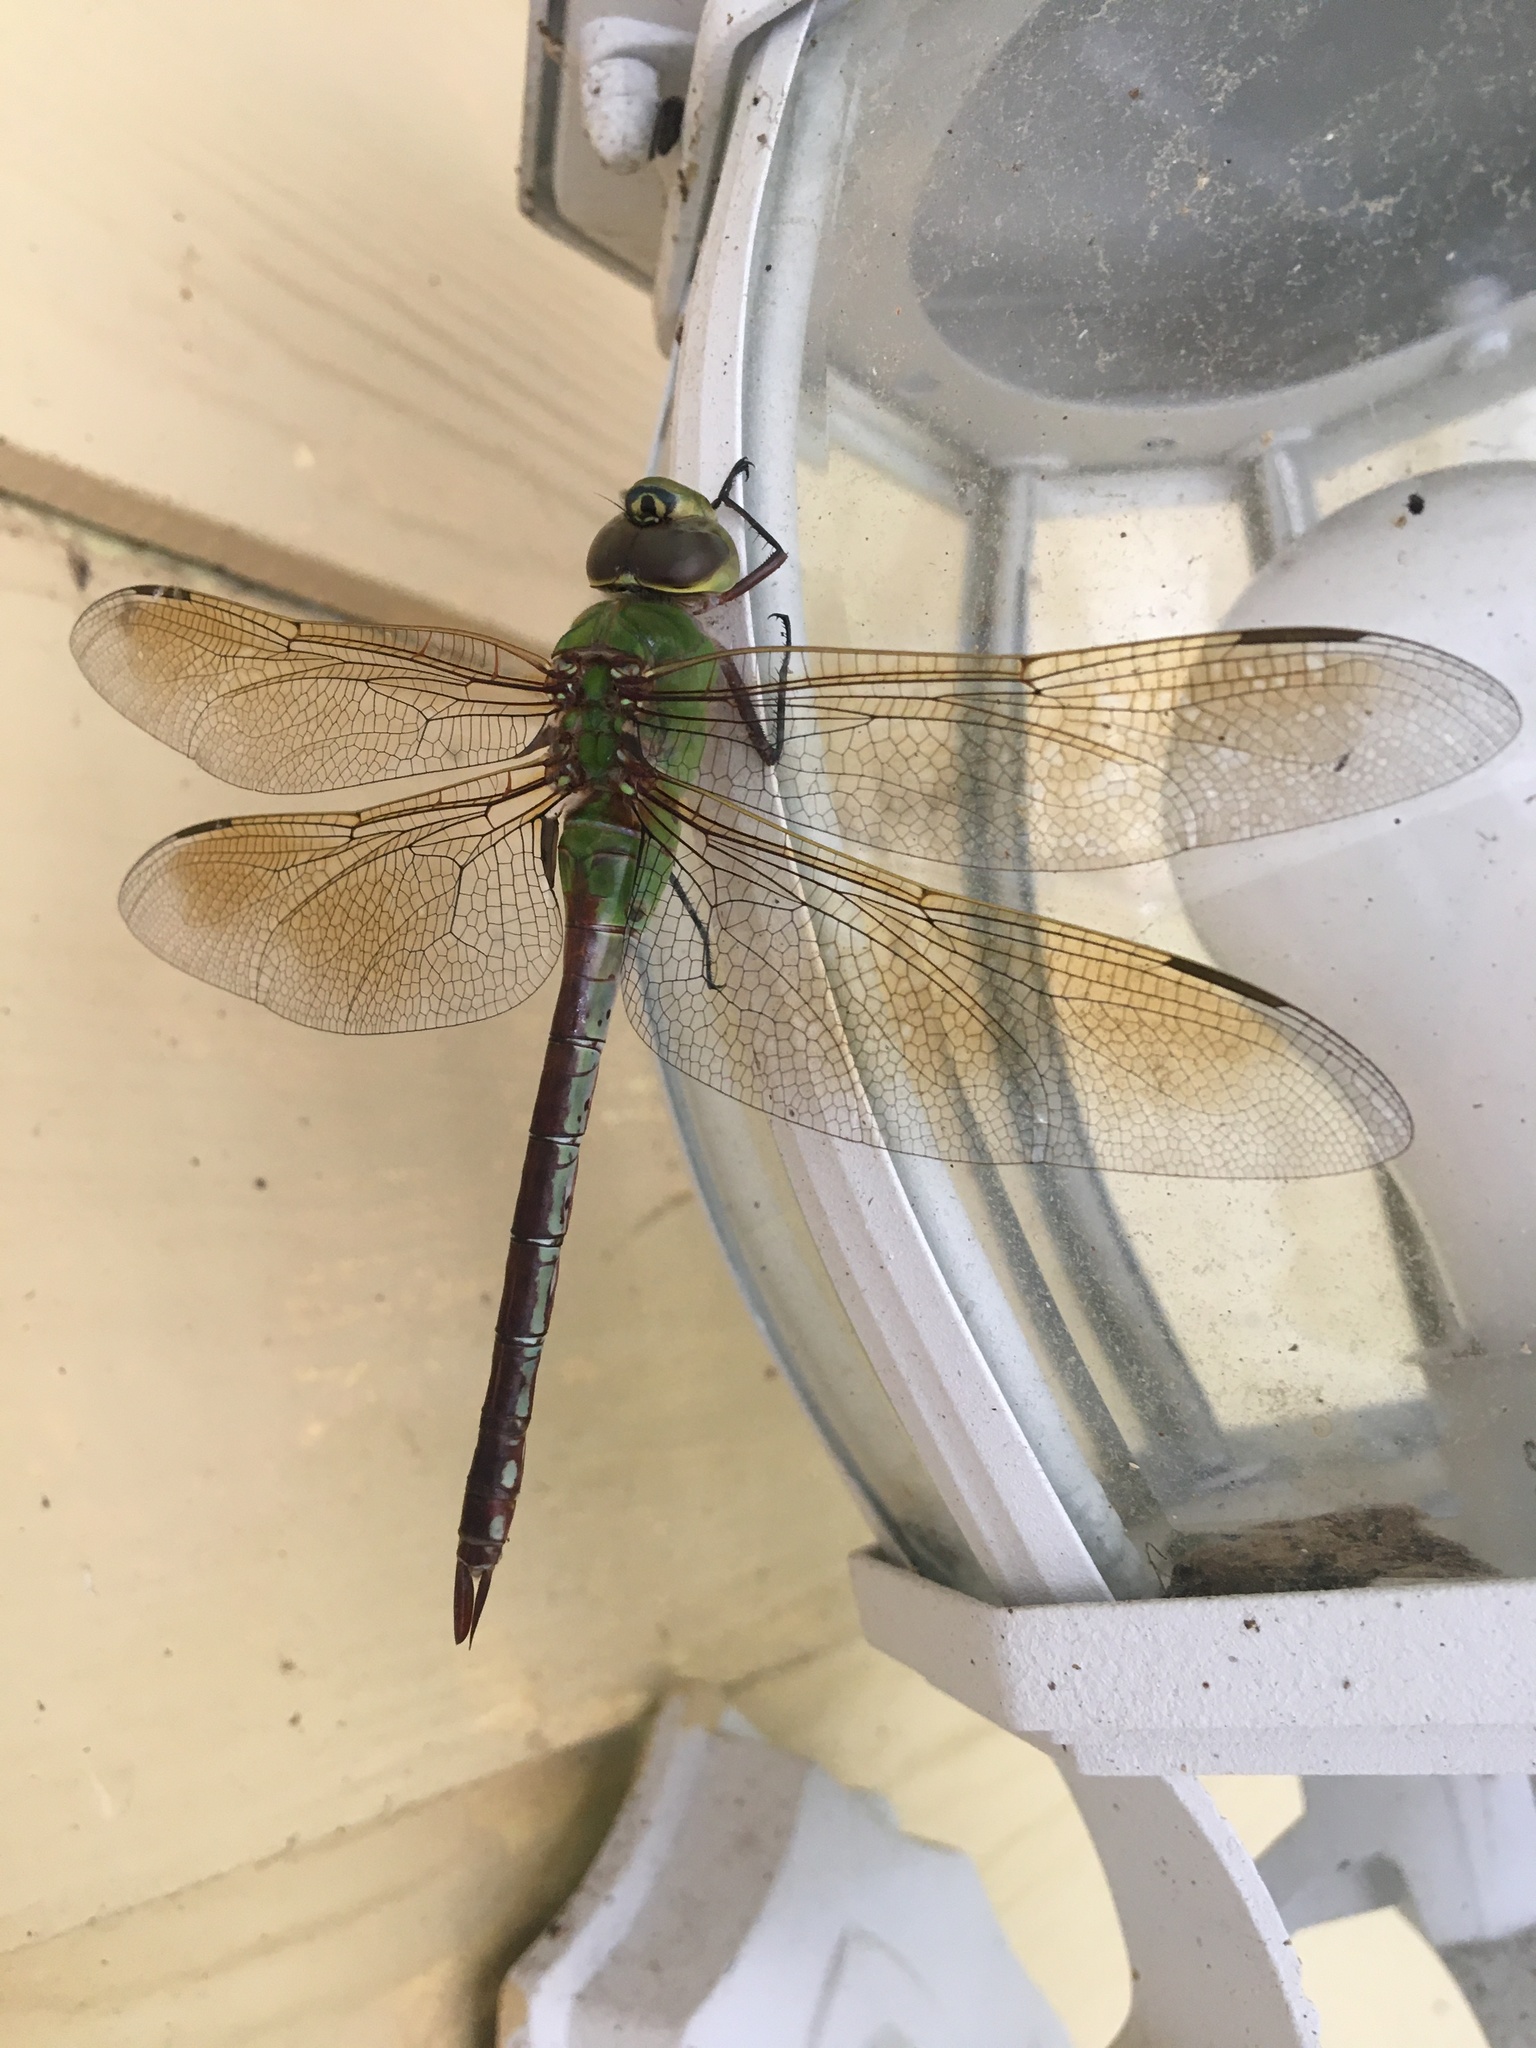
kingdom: Animalia
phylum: Arthropoda
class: Insecta
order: Odonata
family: Aeshnidae
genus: Anax
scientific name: Anax junius
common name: Common green darner
